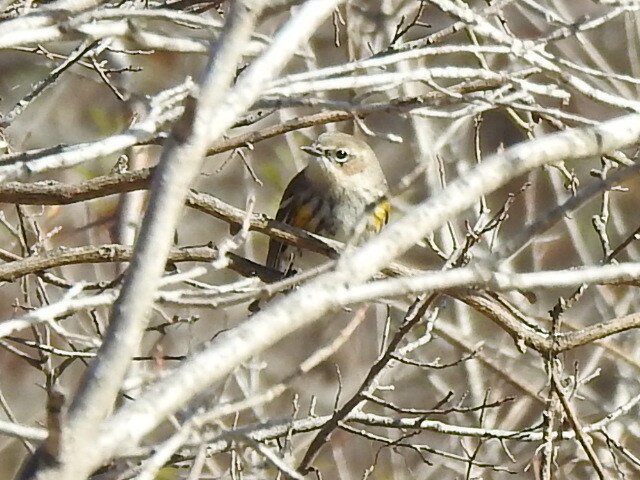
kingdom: Animalia
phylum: Chordata
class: Aves
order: Passeriformes
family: Parulidae
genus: Setophaga
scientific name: Setophaga coronata
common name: Myrtle warbler
